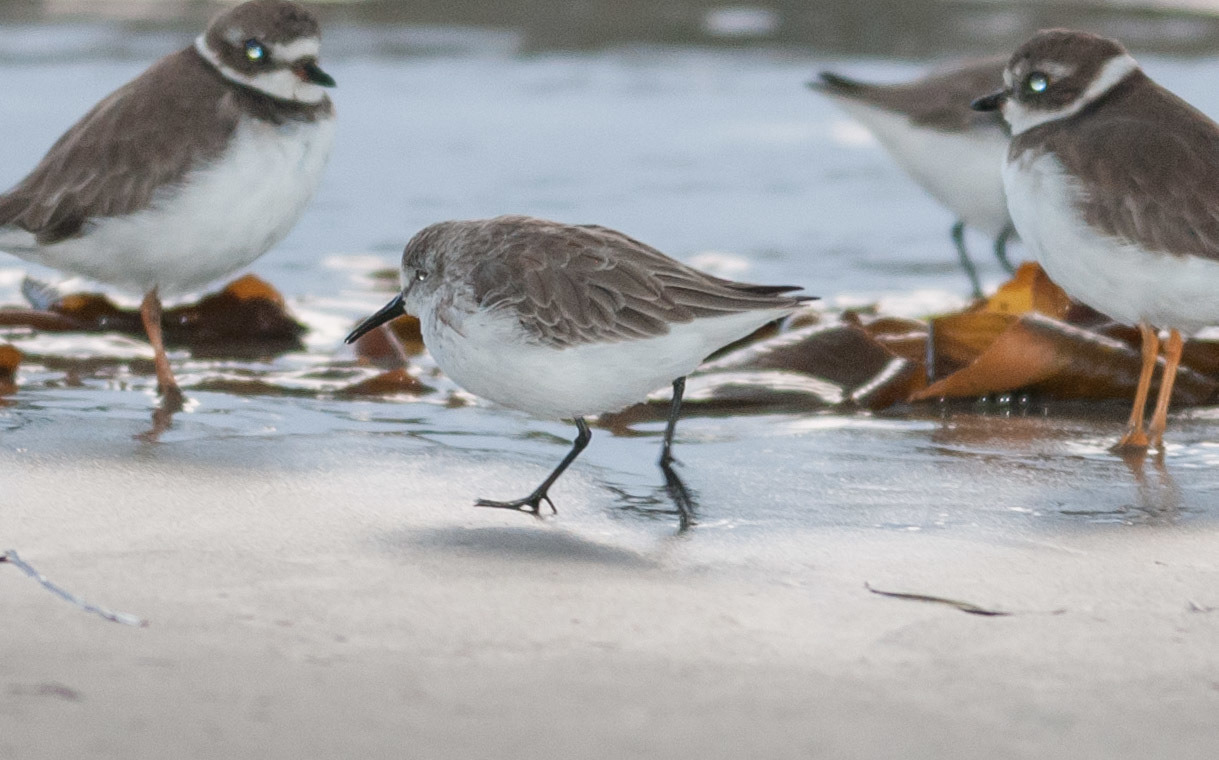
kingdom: Animalia
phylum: Chordata
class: Aves
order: Charadriiformes
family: Scolopacidae
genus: Calidris
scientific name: Calidris mauri
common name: Western sandpiper
